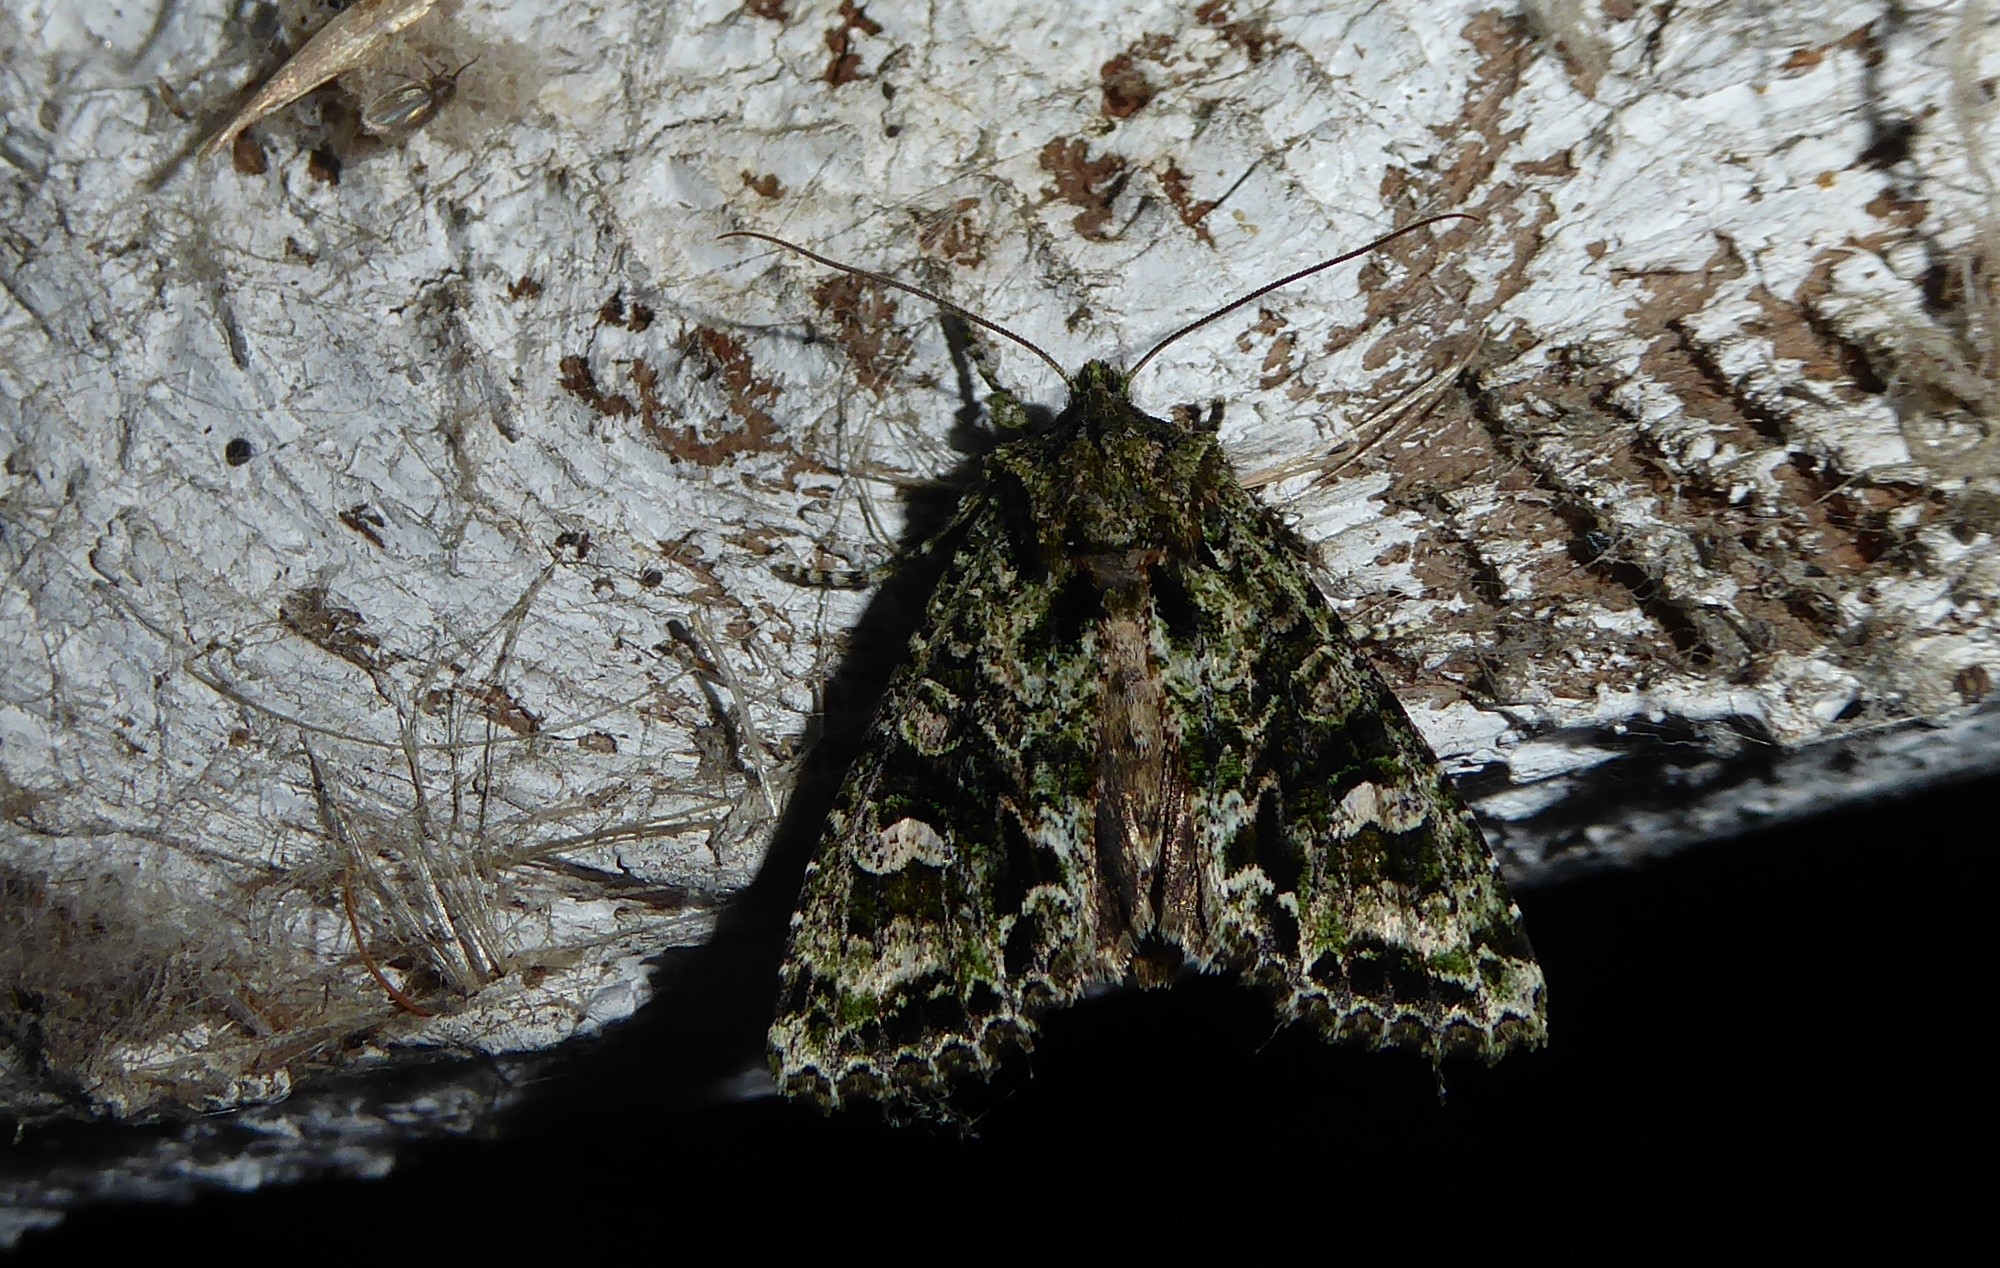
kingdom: Animalia
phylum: Arthropoda
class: Insecta
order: Lepidoptera
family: Noctuidae
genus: Ichneutica
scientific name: Ichneutica
